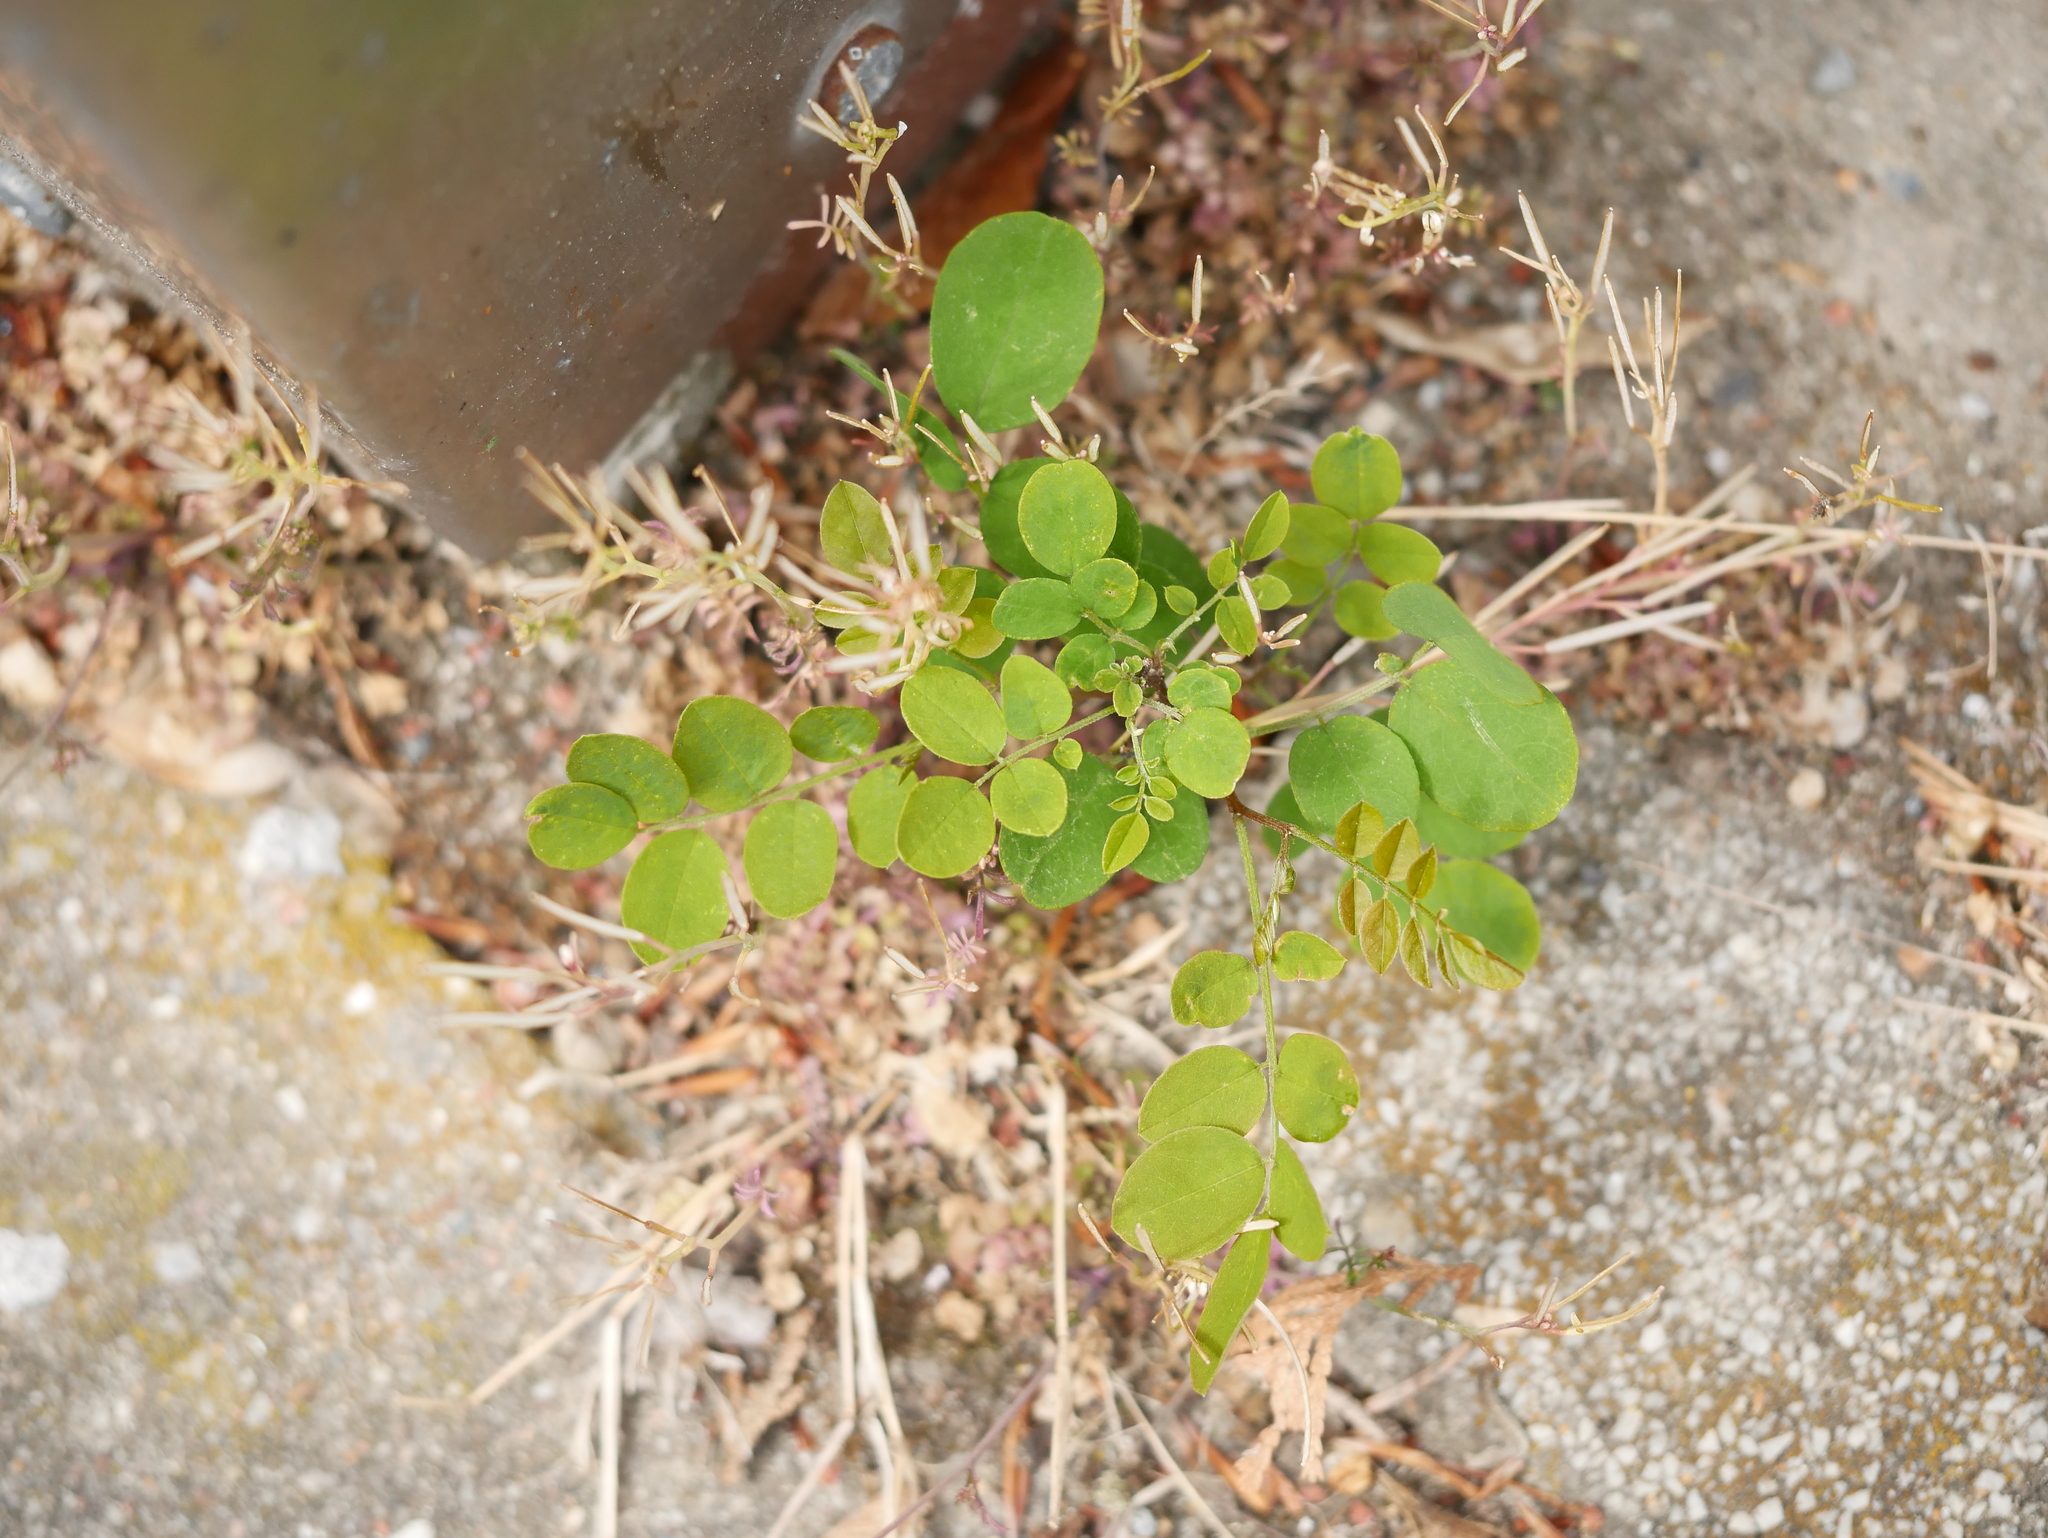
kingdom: Plantae
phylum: Tracheophyta
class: Magnoliopsida
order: Fabales
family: Fabaceae
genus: Robinia
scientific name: Robinia pseudoacacia
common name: Black locust
